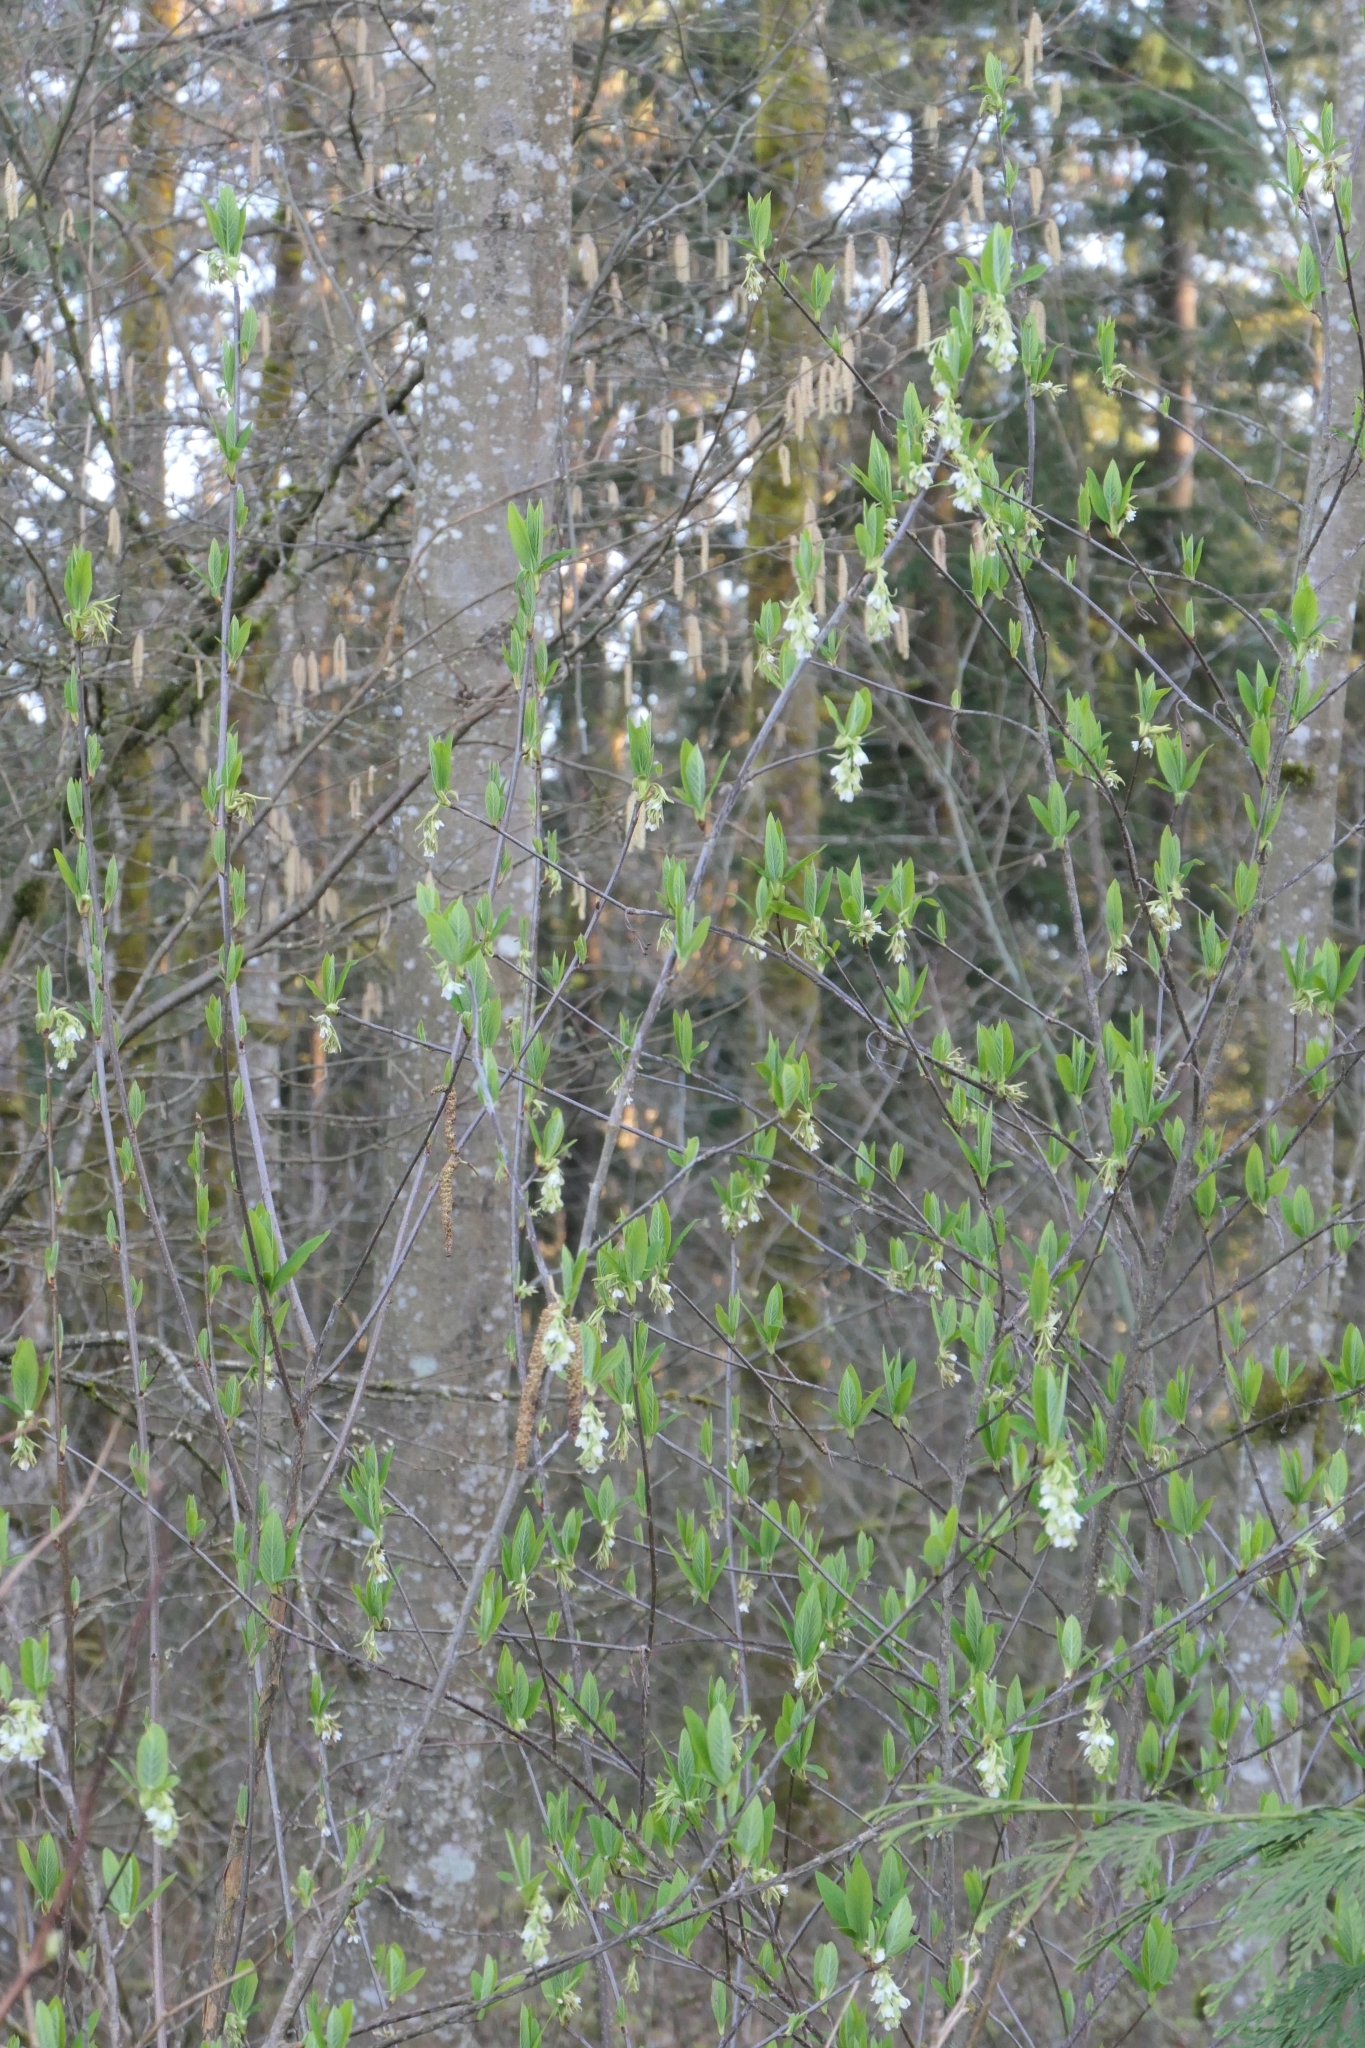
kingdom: Plantae
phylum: Tracheophyta
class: Magnoliopsida
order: Rosales
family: Rosaceae
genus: Oemleria
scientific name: Oemleria cerasiformis
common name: Osoberry
